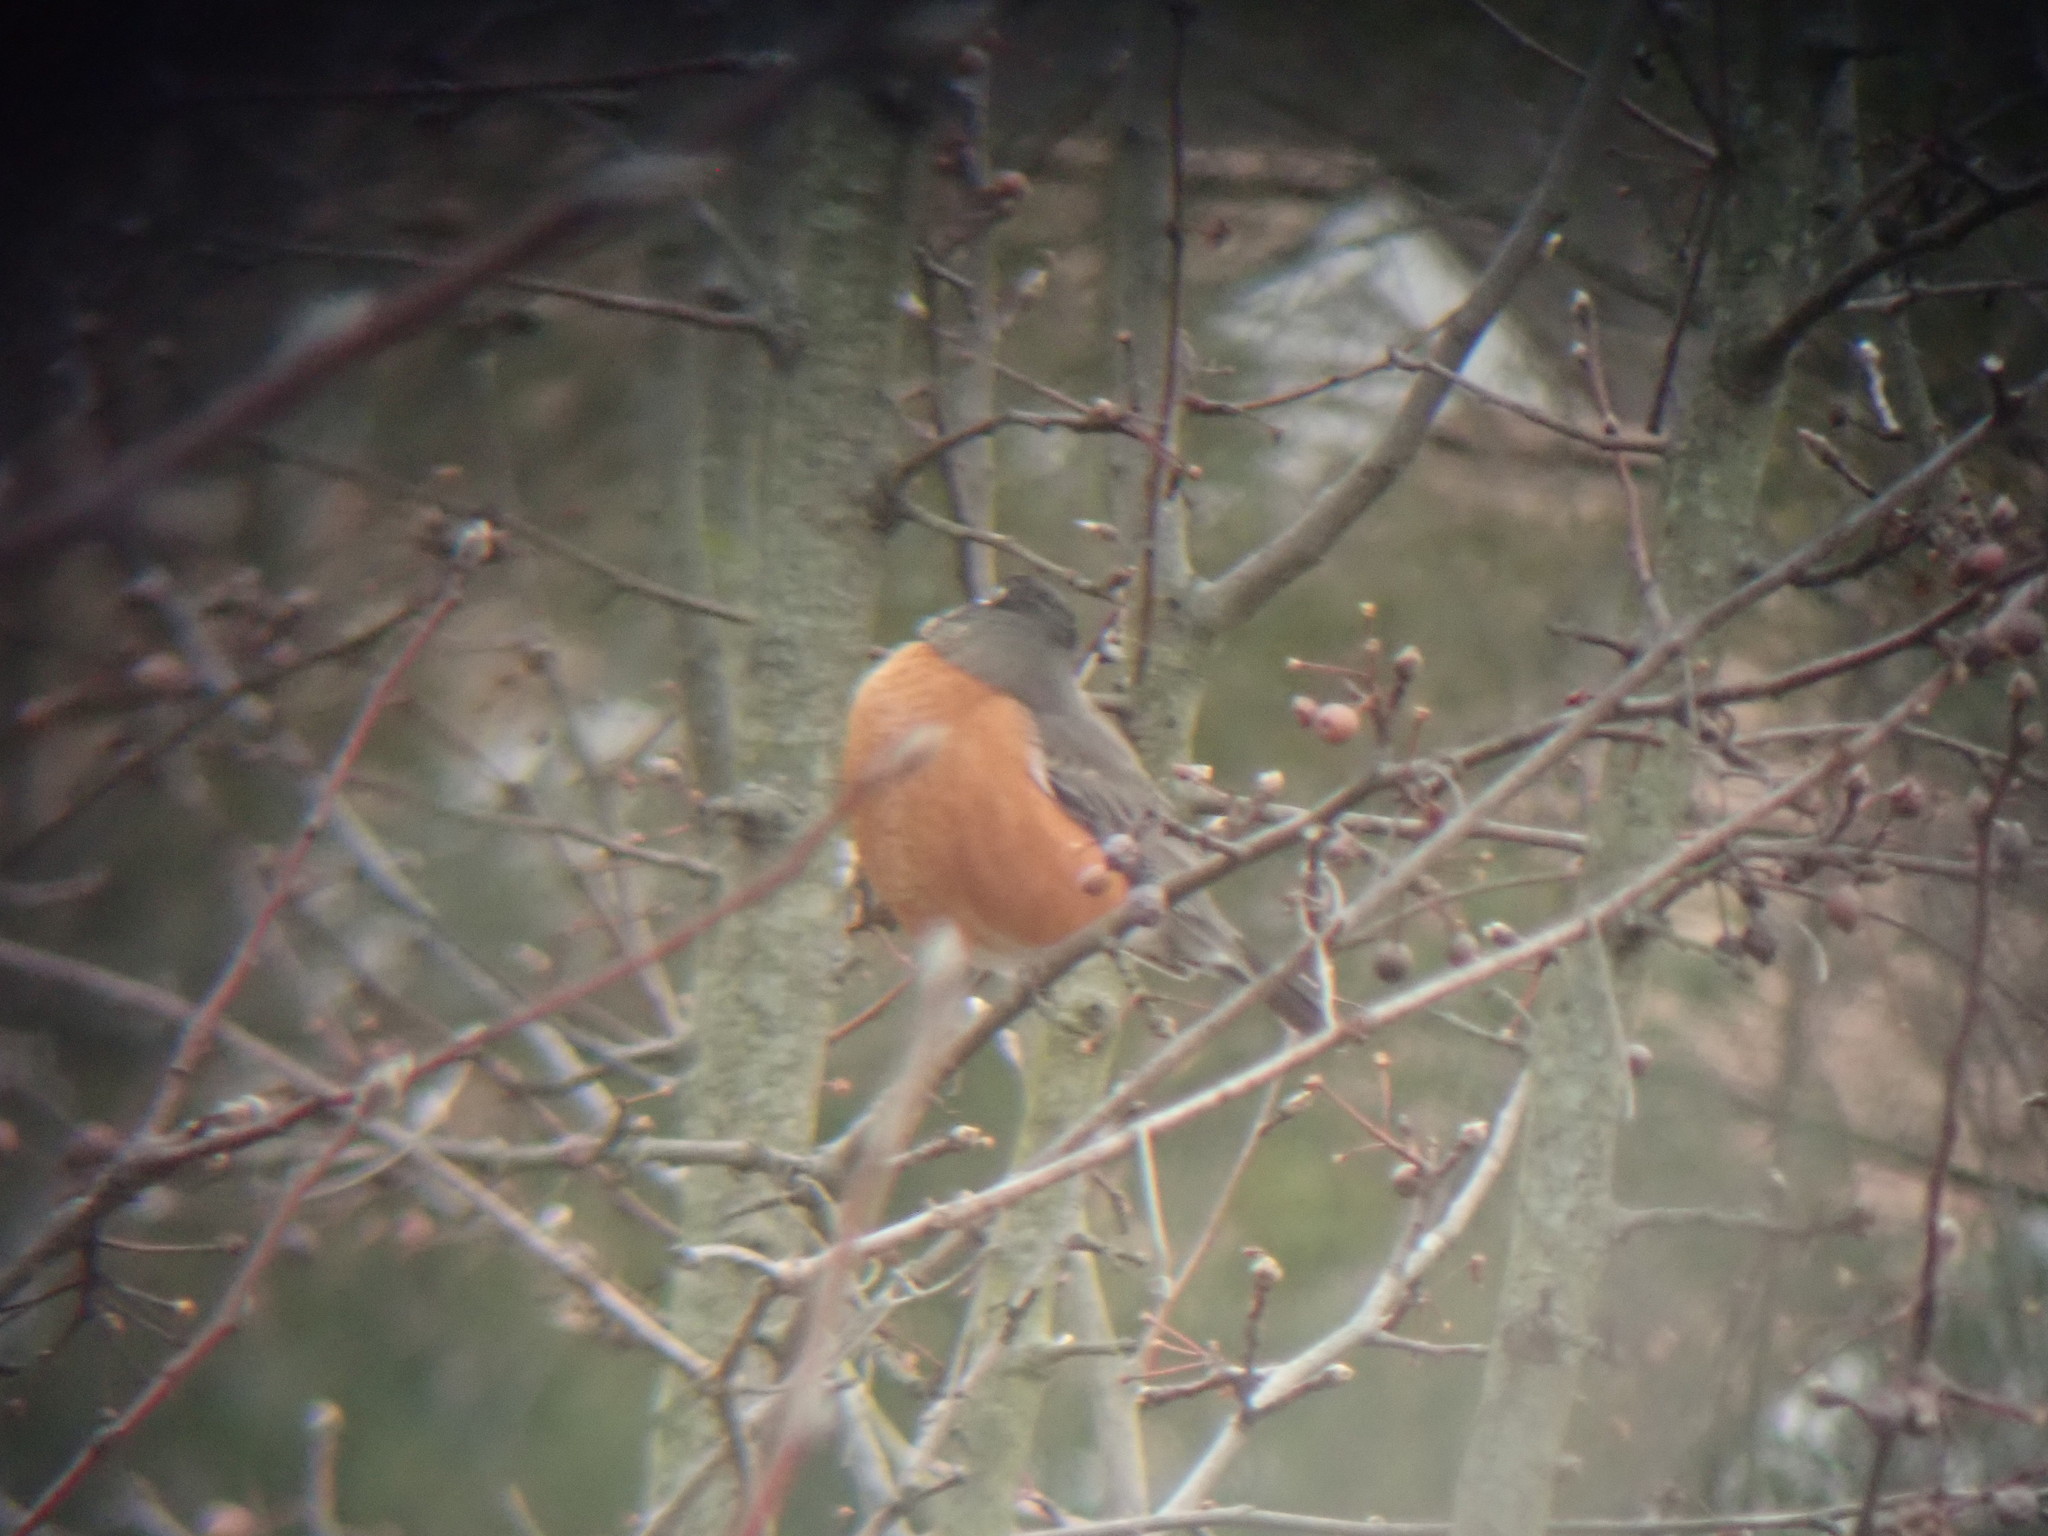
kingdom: Animalia
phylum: Chordata
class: Aves
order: Passeriformes
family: Turdidae
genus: Turdus
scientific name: Turdus migratorius
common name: American robin
